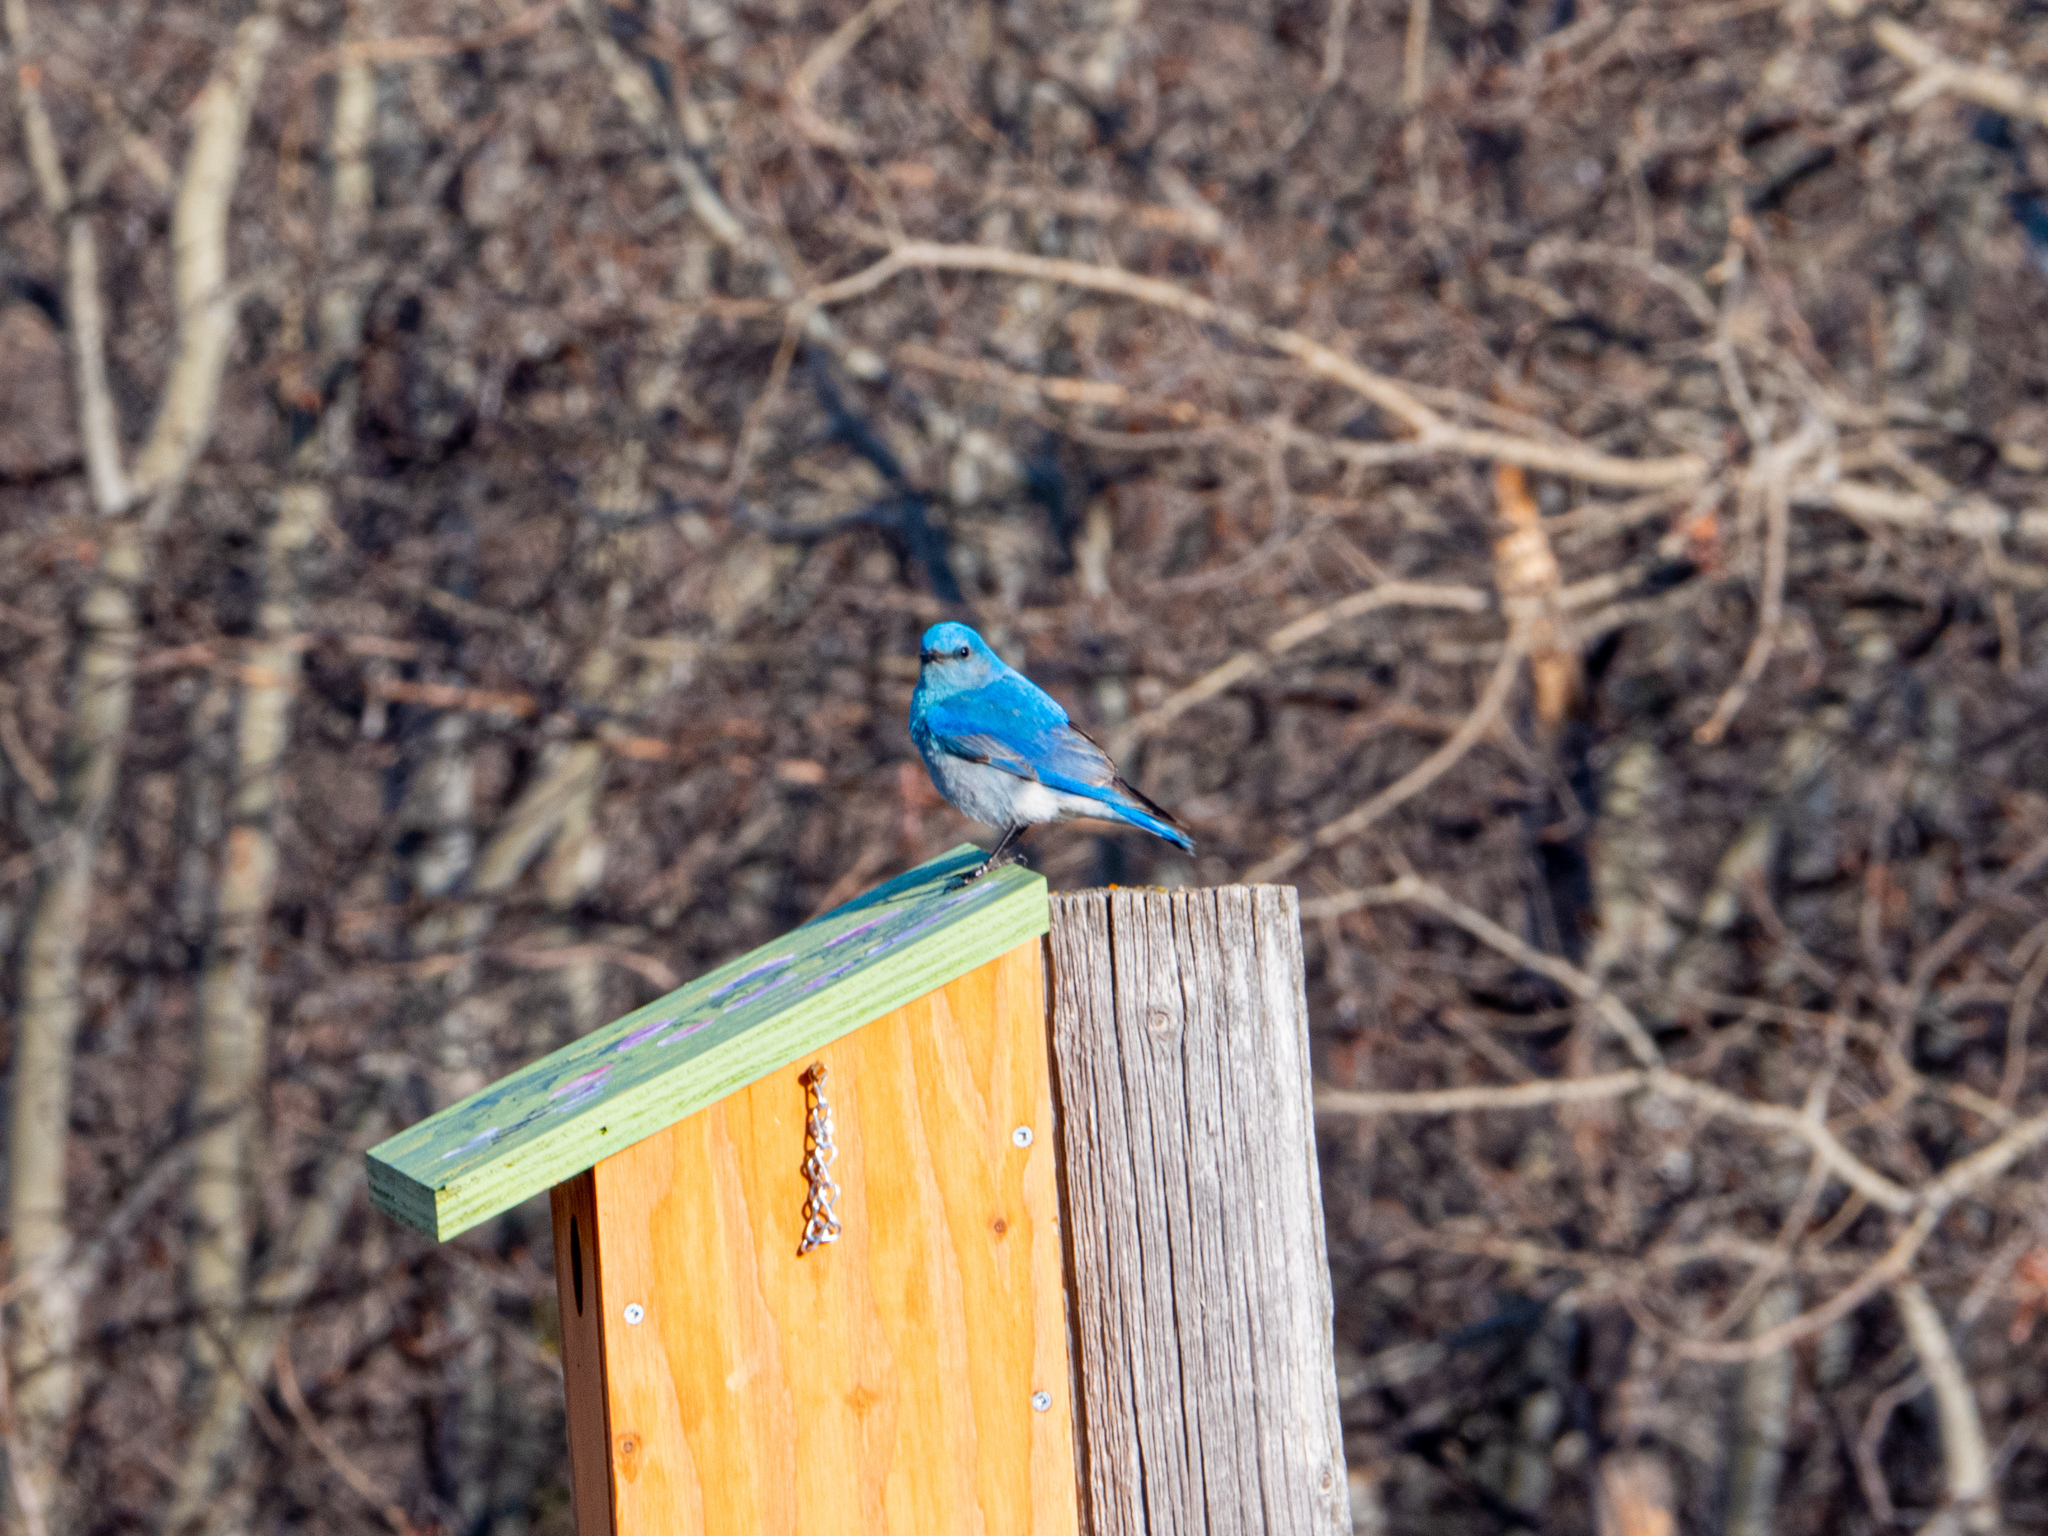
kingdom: Animalia
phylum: Chordata
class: Aves
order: Passeriformes
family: Turdidae
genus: Sialia
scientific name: Sialia currucoides
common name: Mountain bluebird
